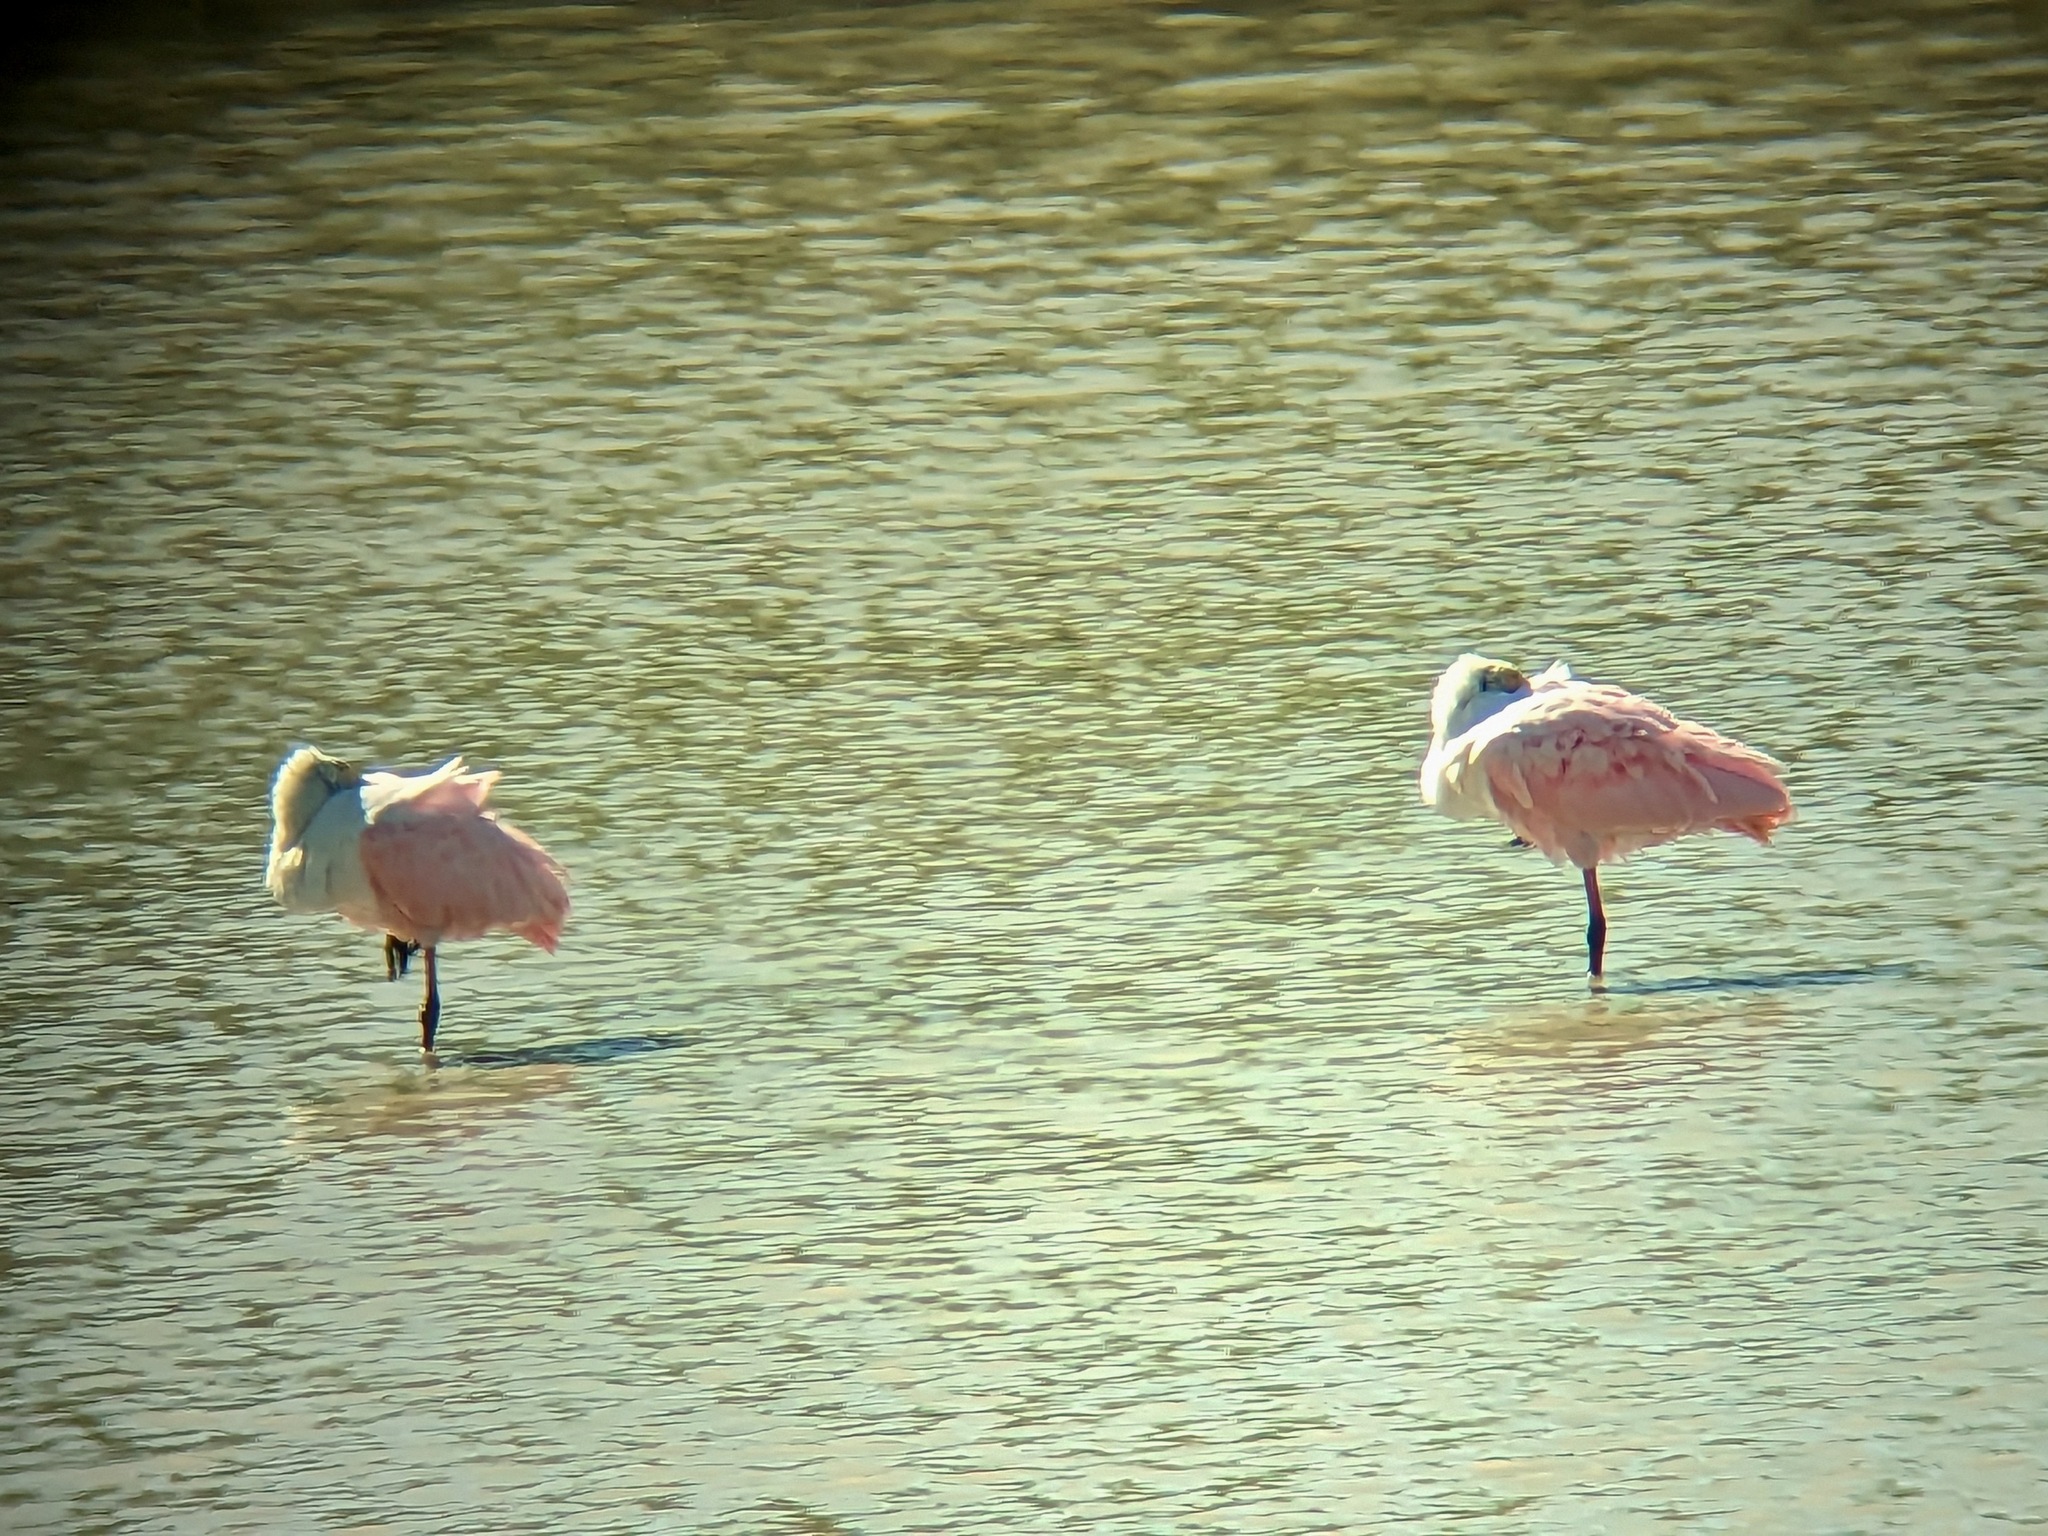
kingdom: Animalia
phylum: Chordata
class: Aves
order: Pelecaniformes
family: Threskiornithidae
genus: Platalea
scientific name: Platalea ajaja
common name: Roseate spoonbill
